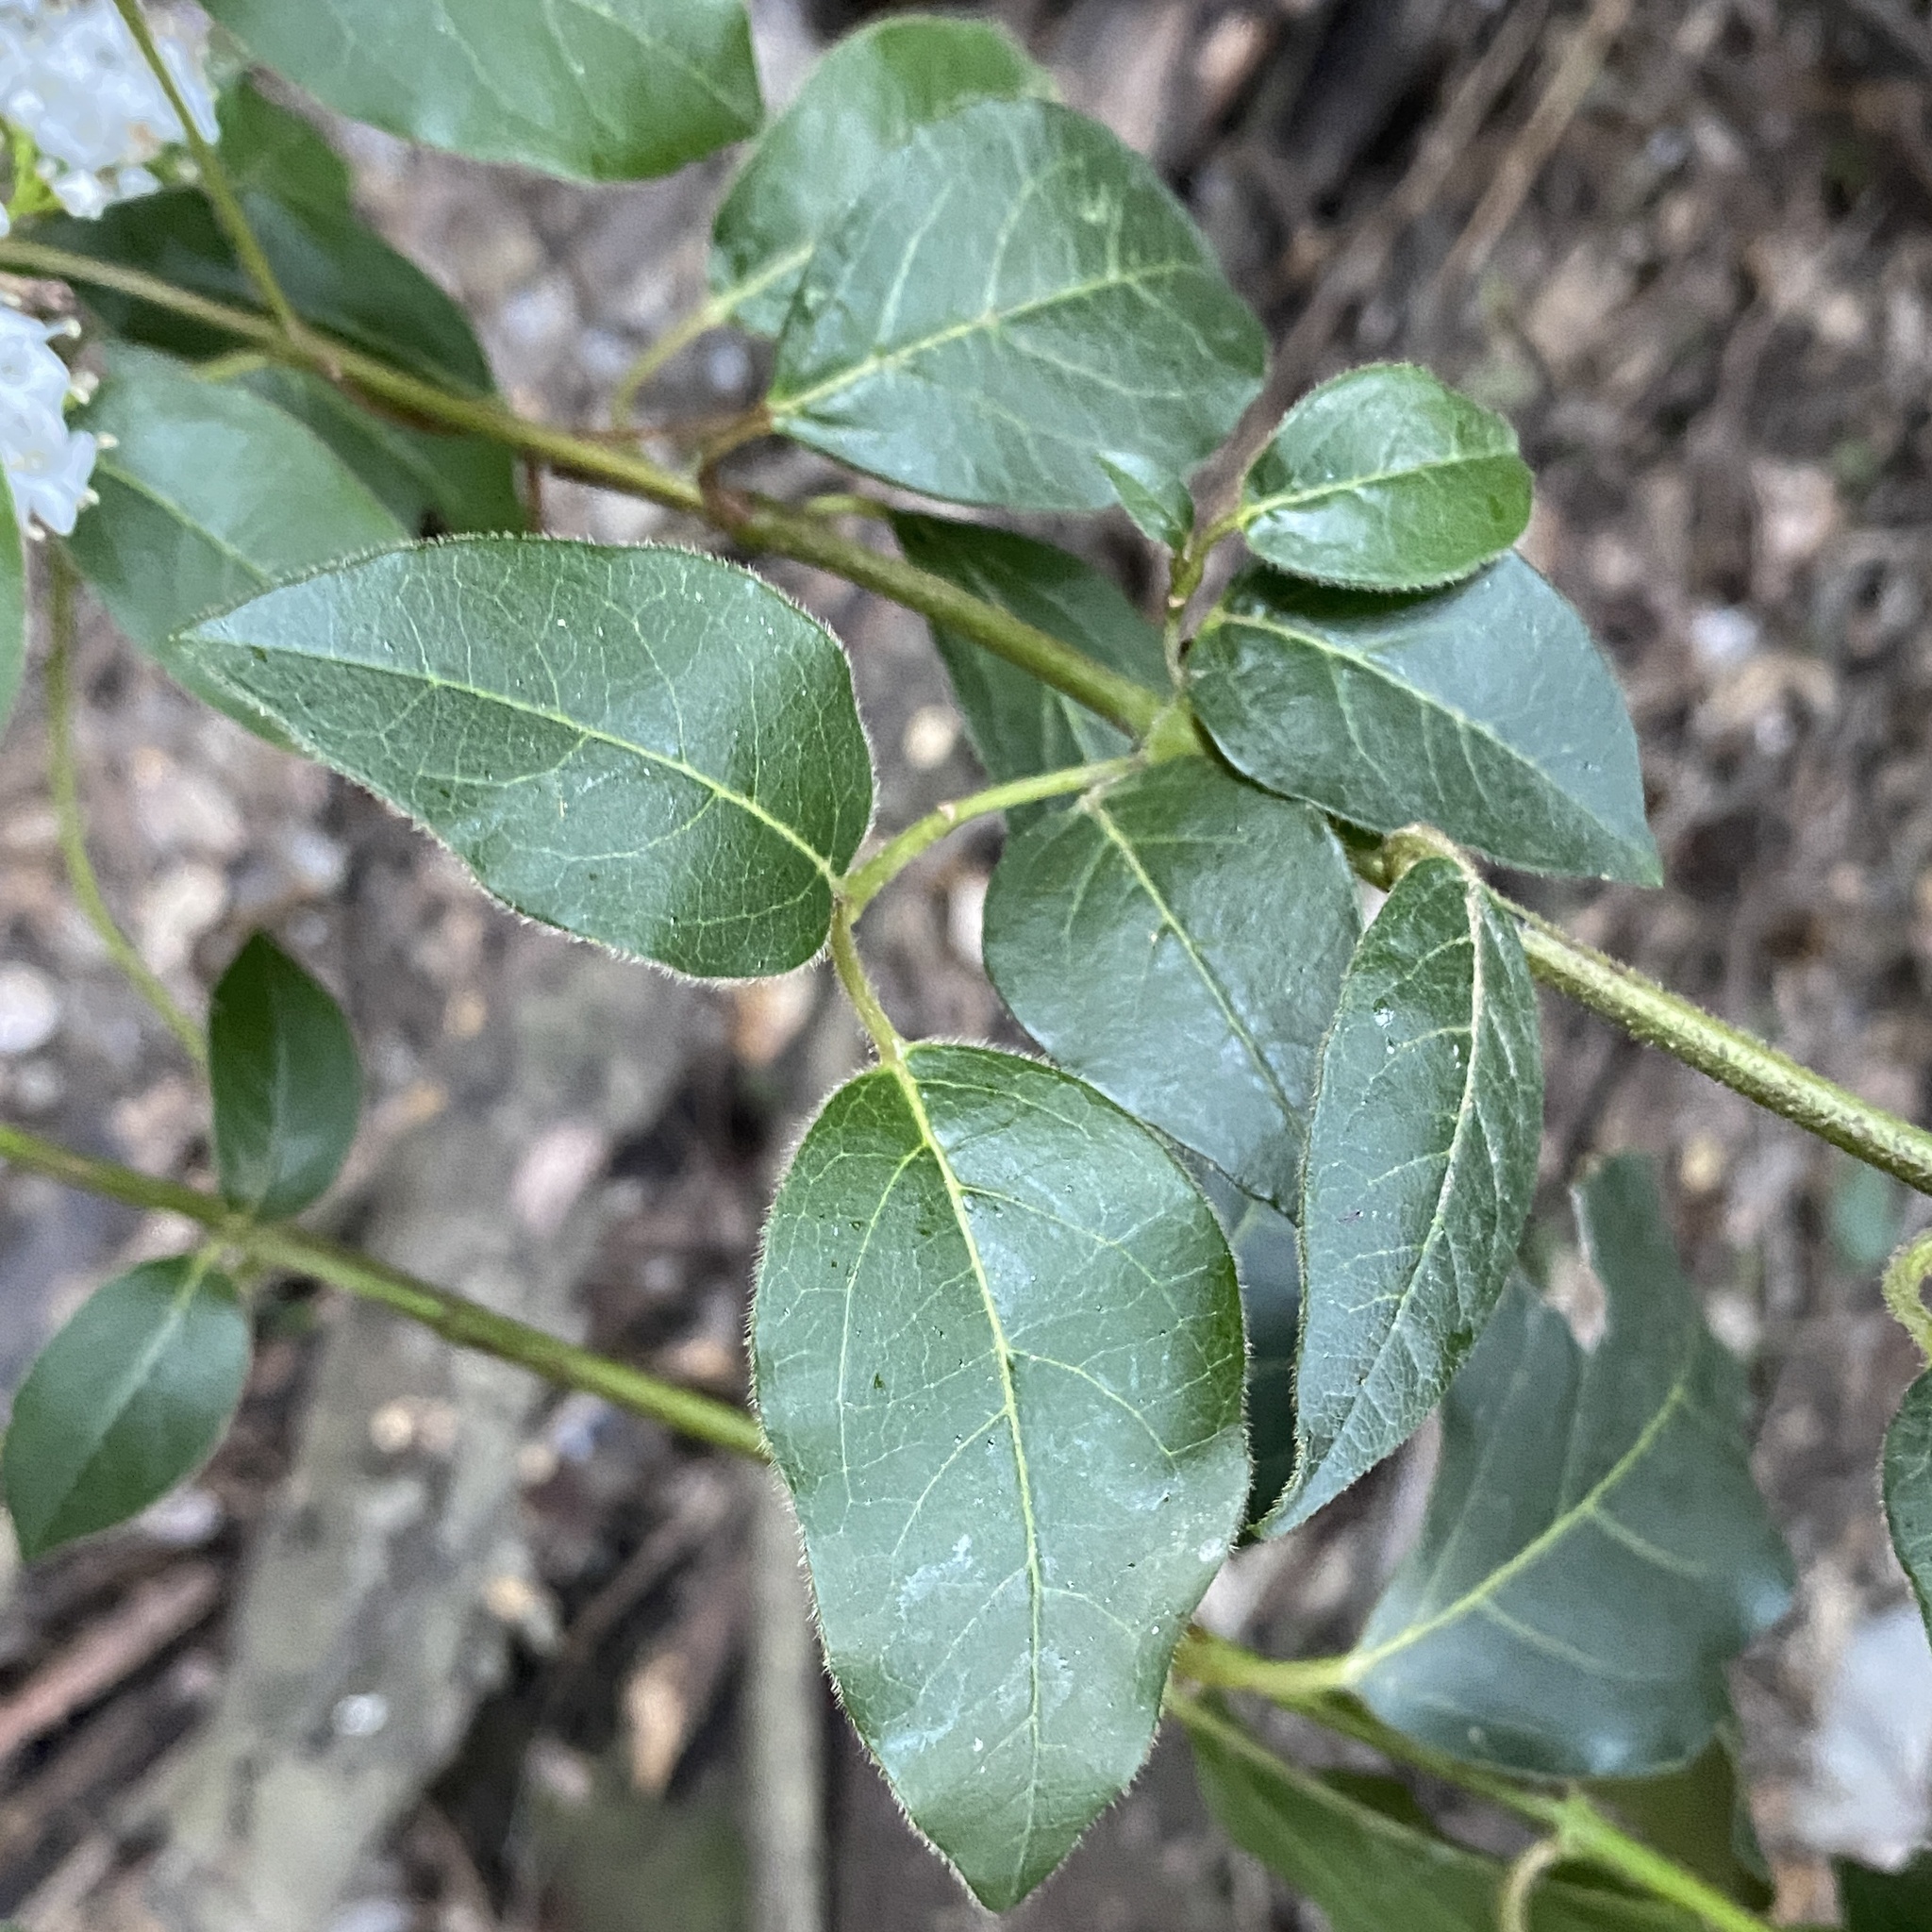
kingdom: Plantae
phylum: Tracheophyta
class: Magnoliopsida
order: Dipsacales
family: Viburnaceae
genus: Viburnum
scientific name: Viburnum tinus
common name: Laurustinus
